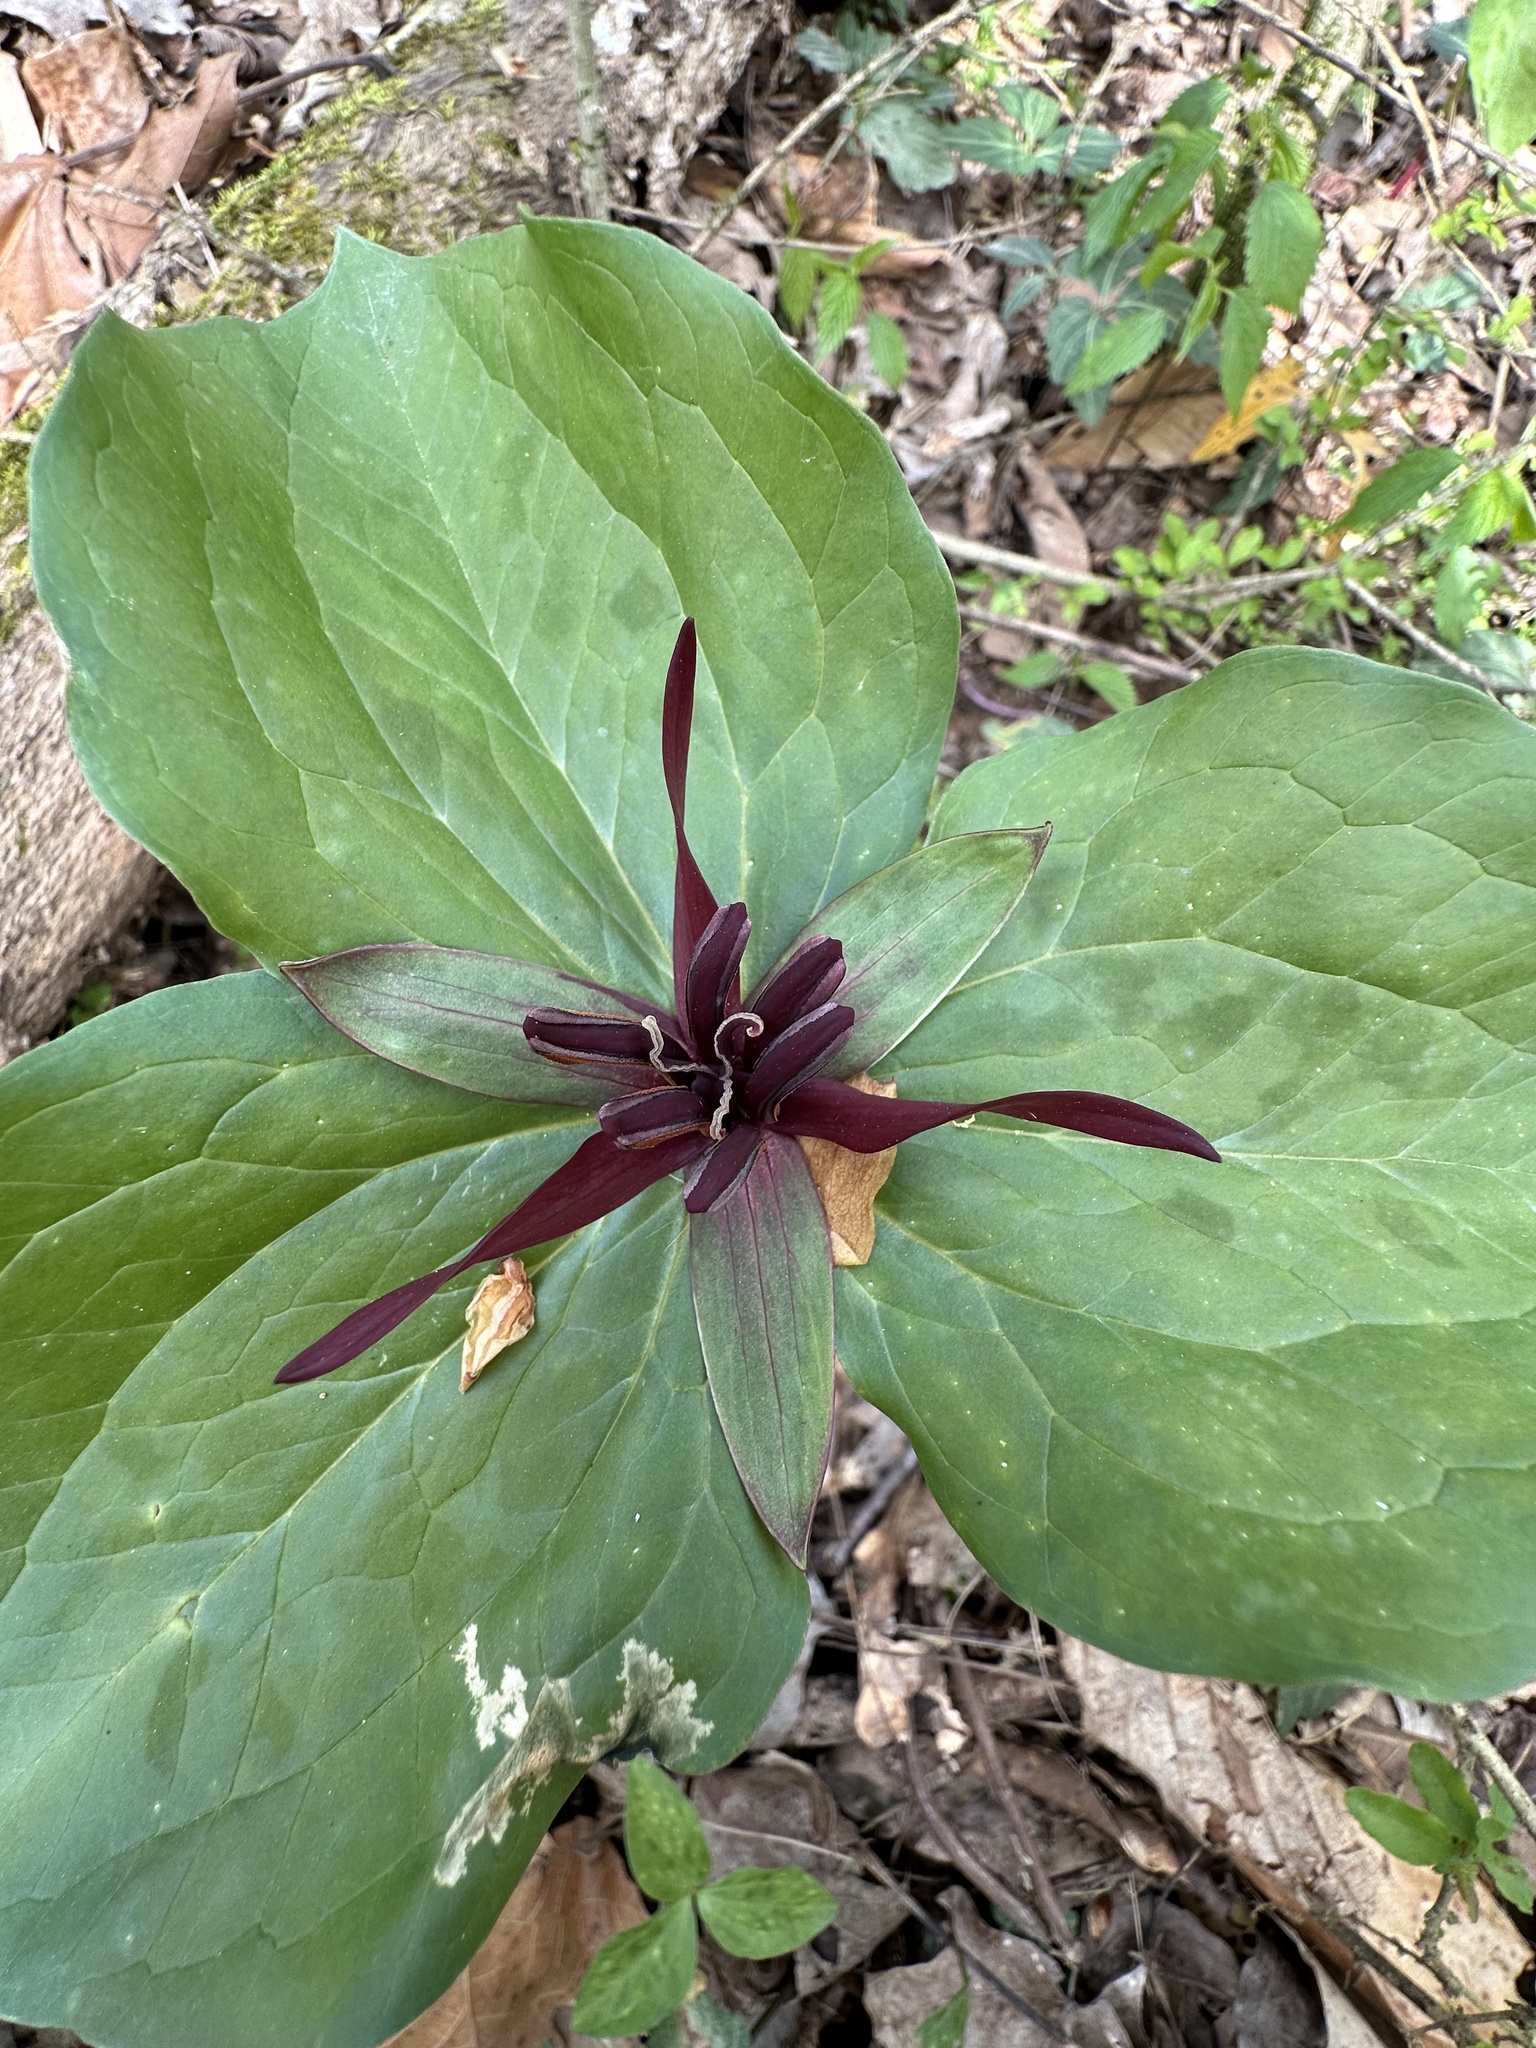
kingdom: Plantae
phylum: Tracheophyta
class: Liliopsida
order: Liliales
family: Melanthiaceae
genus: Trillium
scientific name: Trillium stamineum
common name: Blue ridge wakerobin
